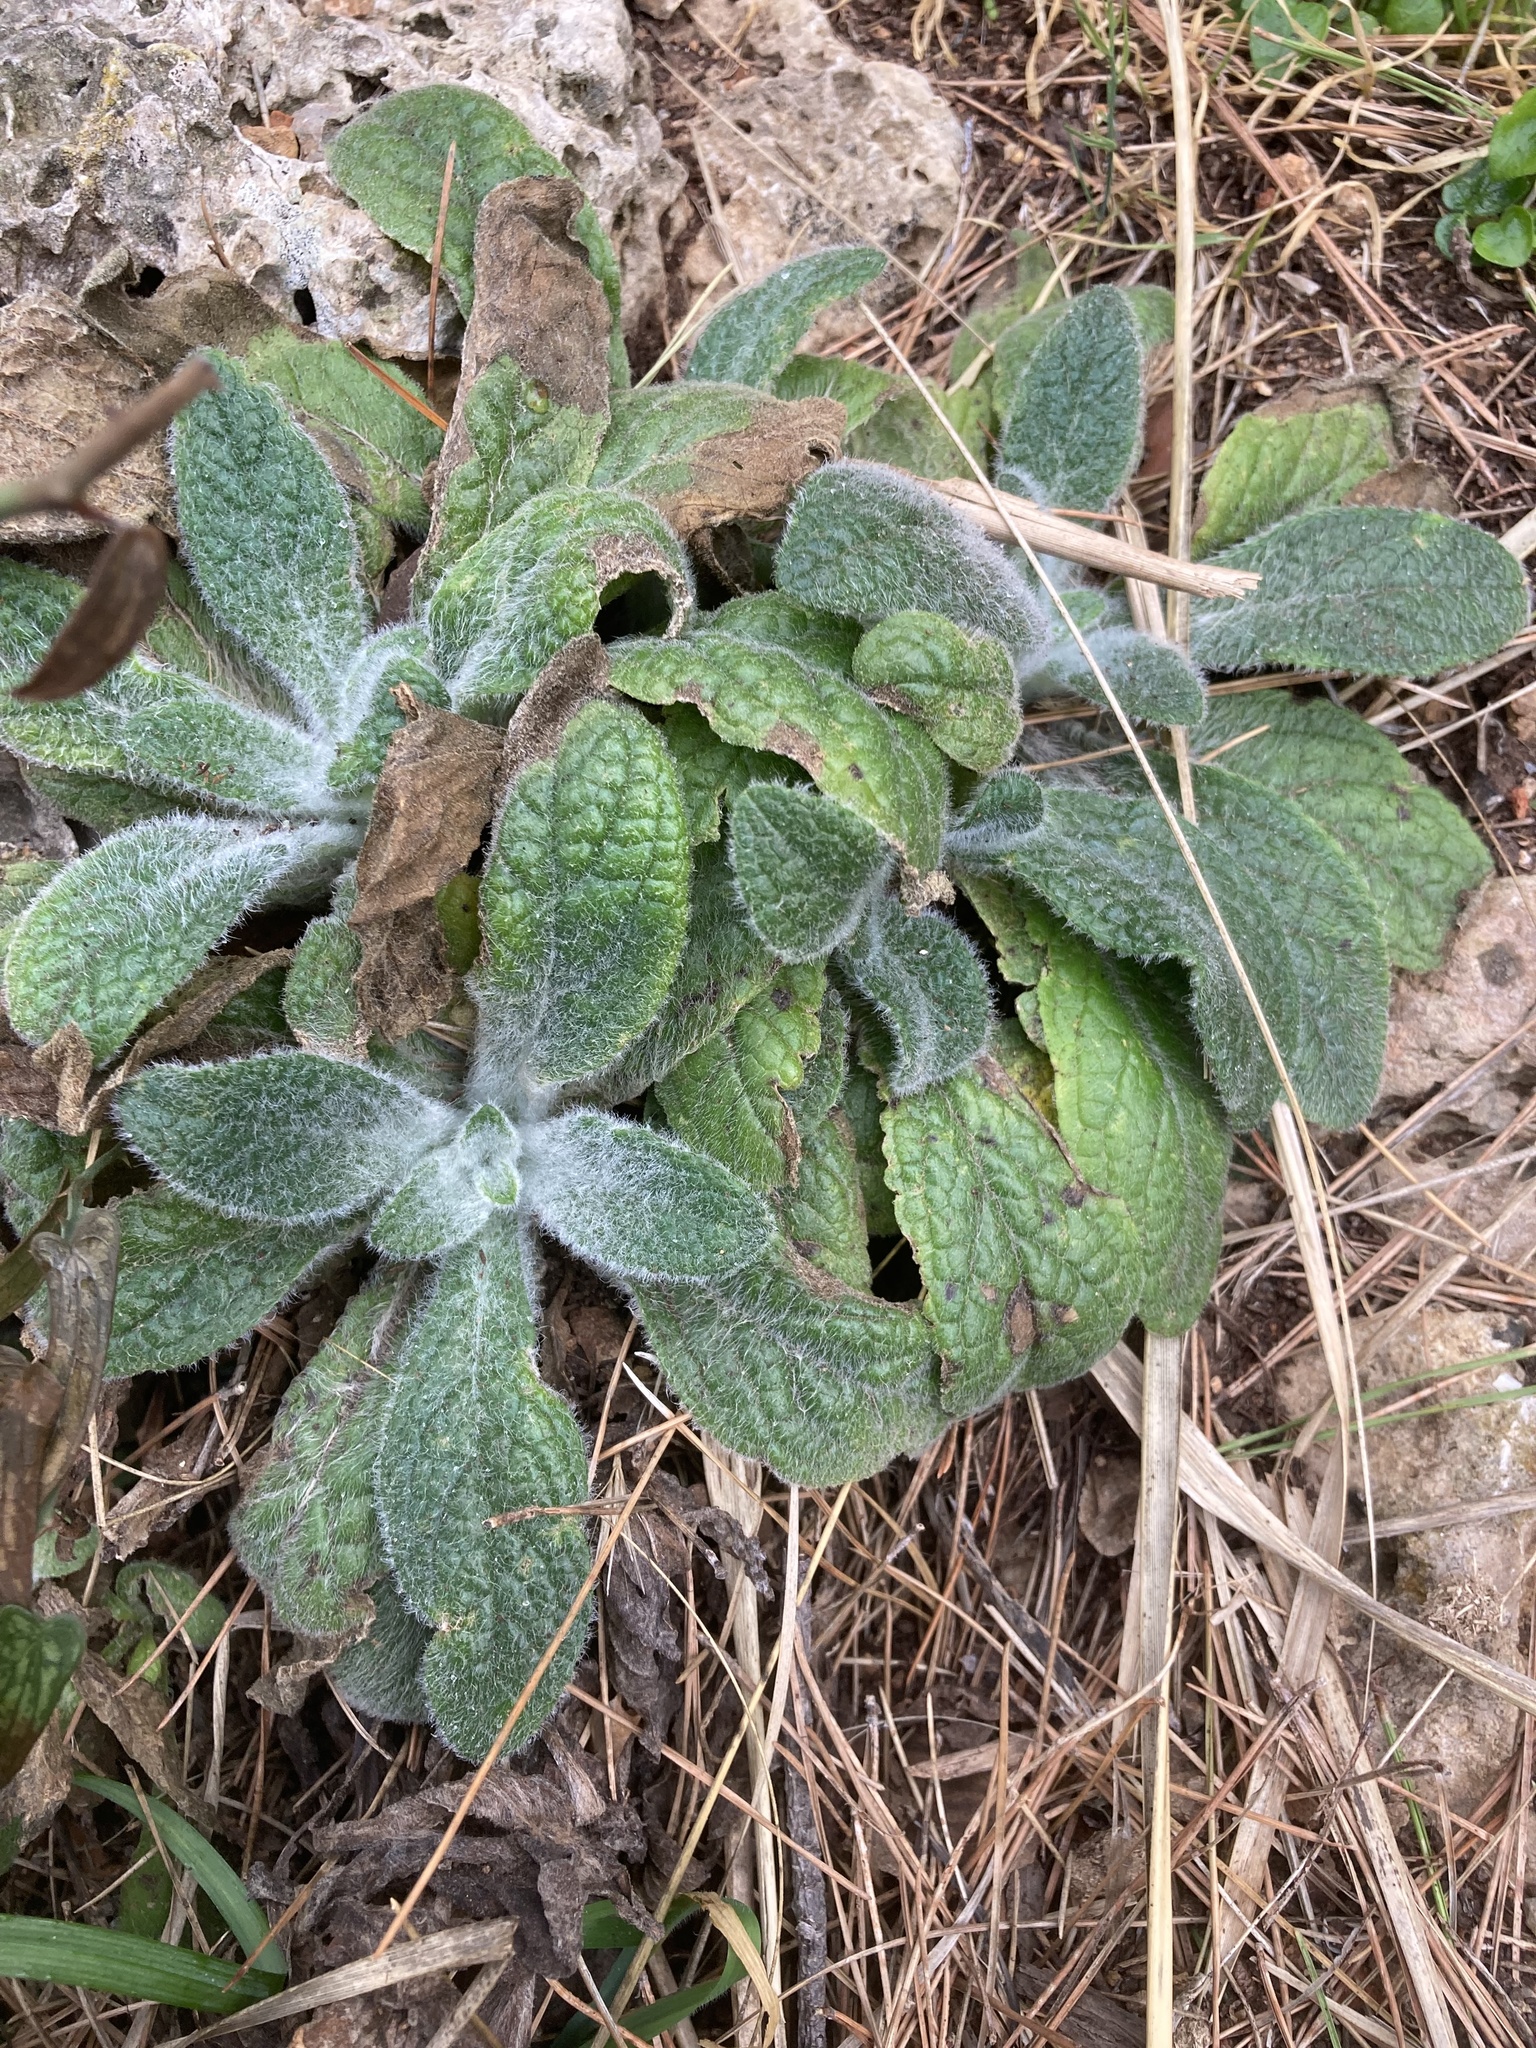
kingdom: Plantae
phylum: Tracheophyta
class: Magnoliopsida
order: Lamiales
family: Plantaginaceae
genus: Digitalis
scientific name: Digitalis minor
